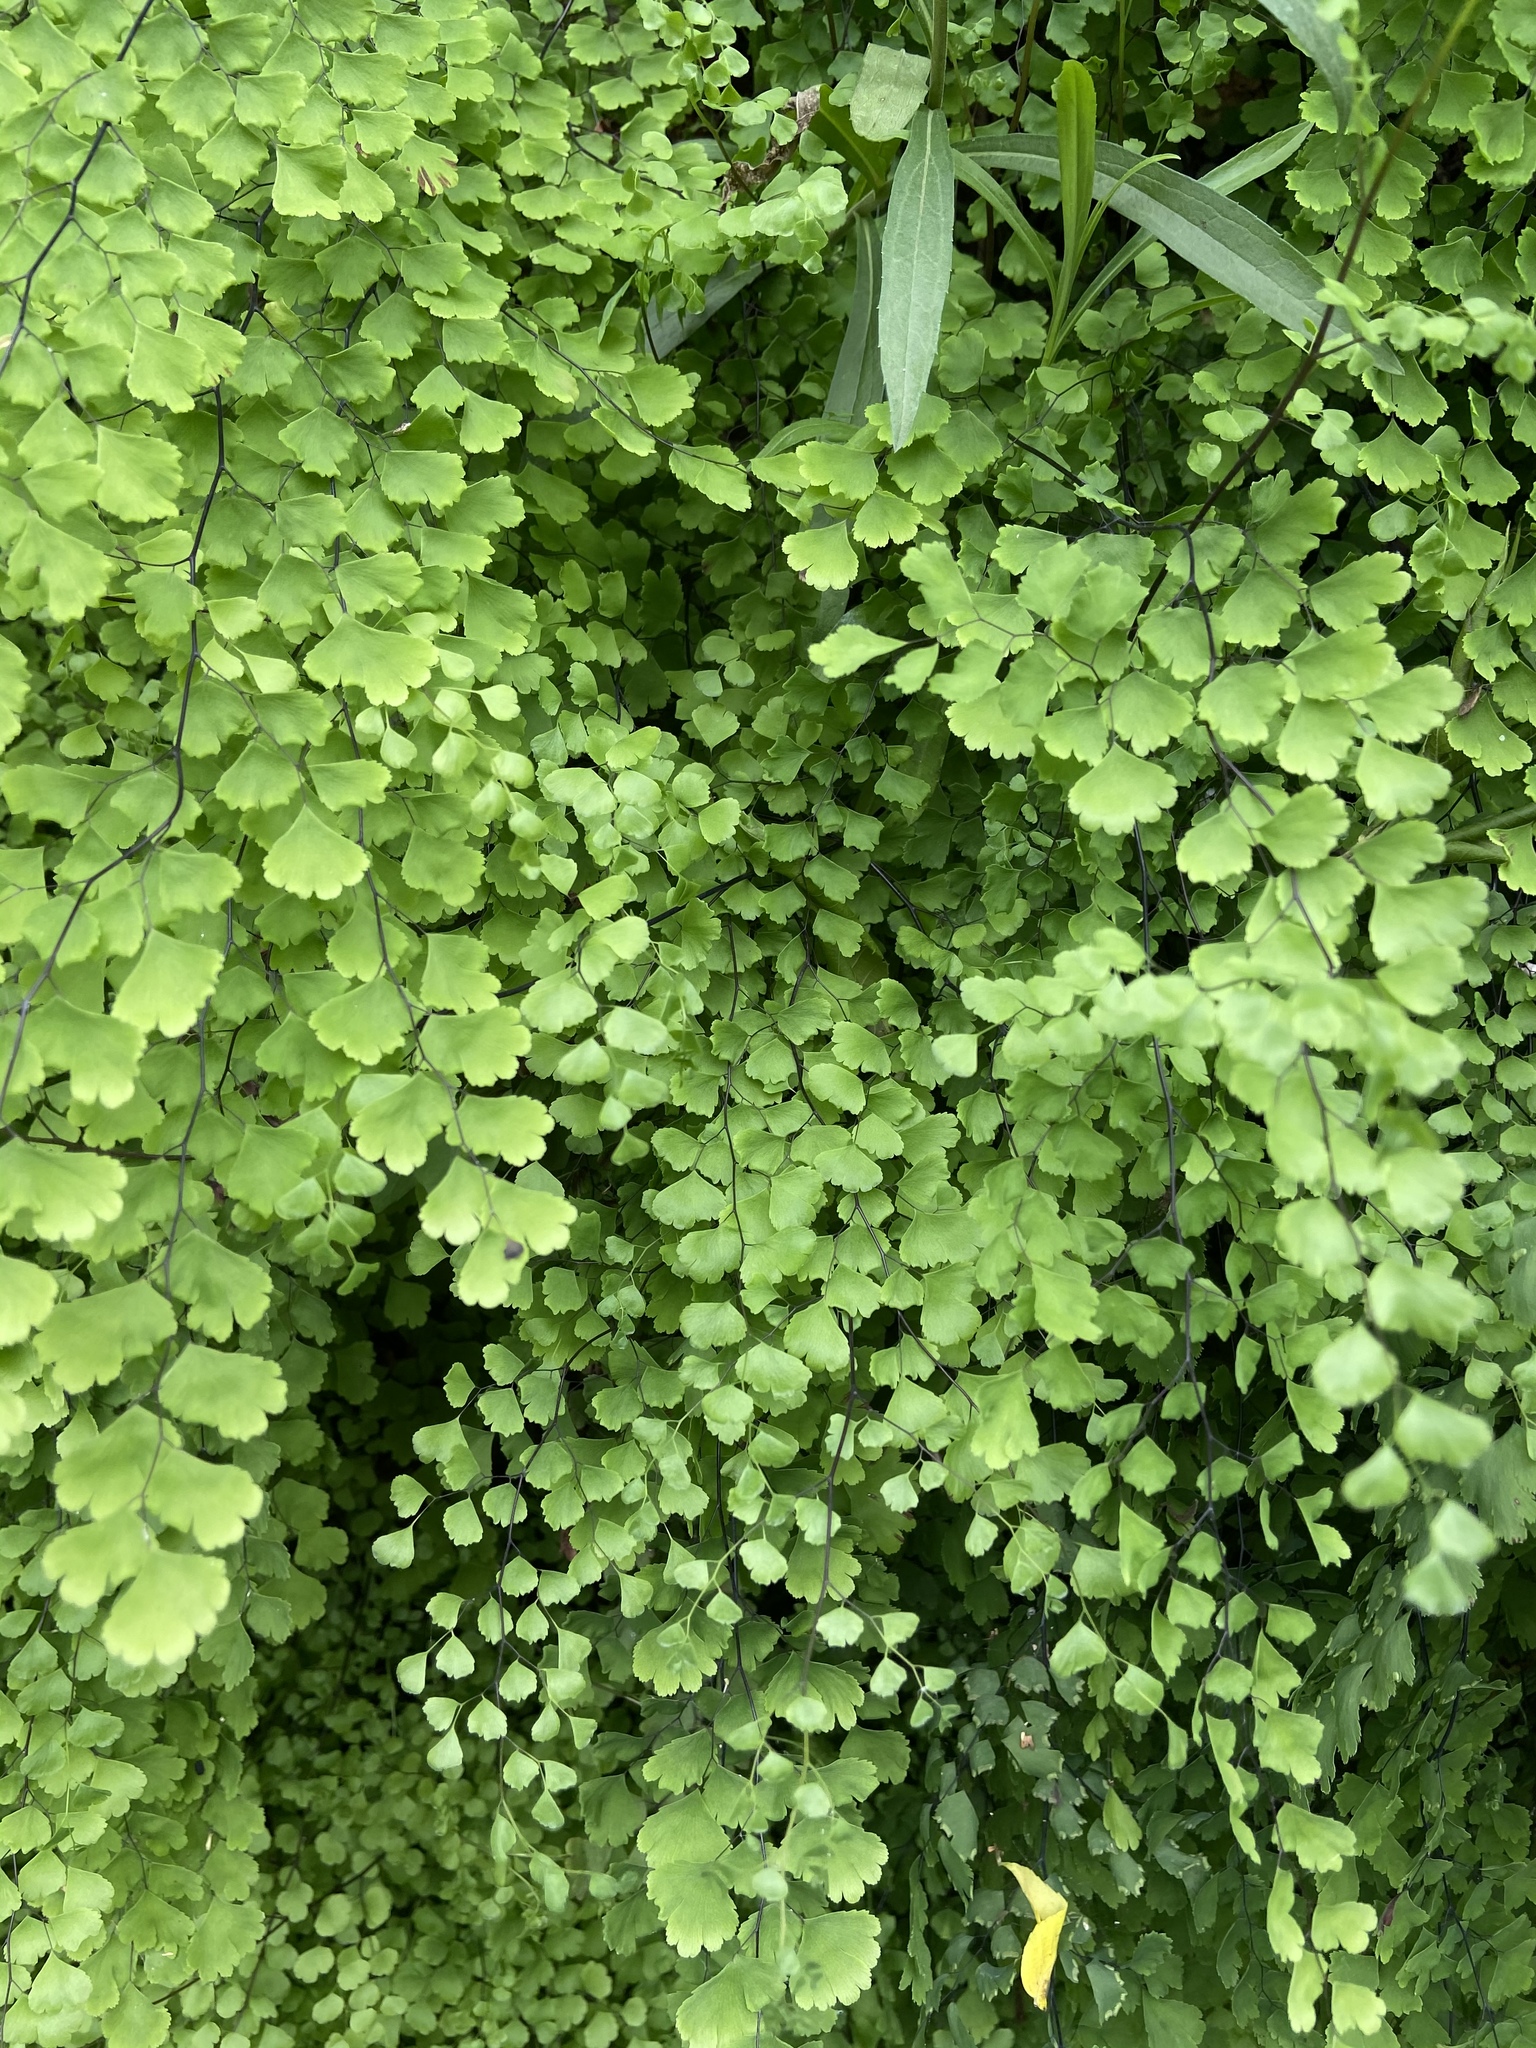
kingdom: Plantae
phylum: Tracheophyta
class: Polypodiopsida
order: Polypodiales
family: Pteridaceae
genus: Adiantum
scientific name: Adiantum capillus-veneris
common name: Maidenhair fern
